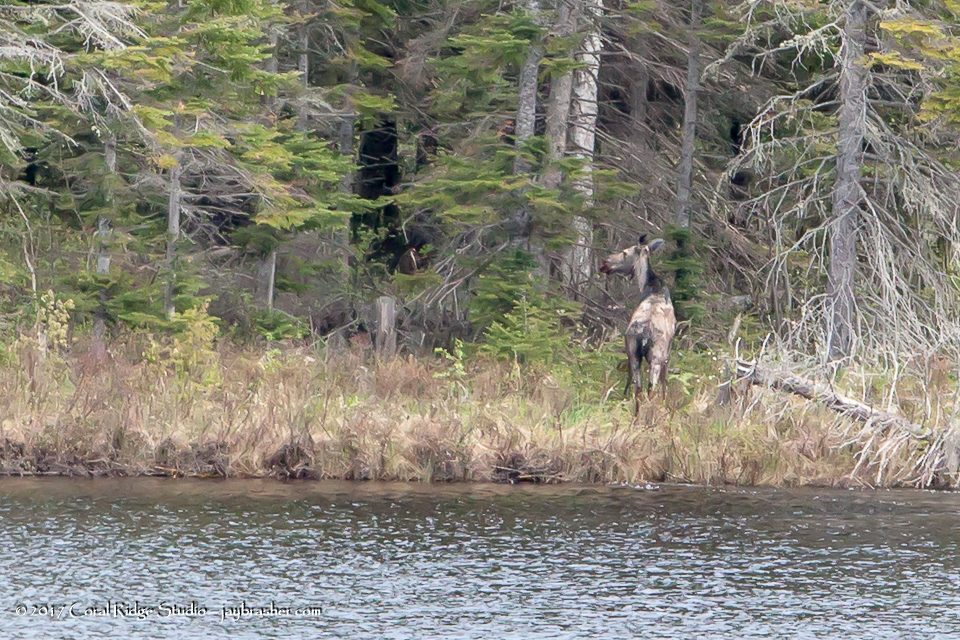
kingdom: Animalia
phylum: Chordata
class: Mammalia
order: Artiodactyla
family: Cervidae
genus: Alces
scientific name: Alces alces
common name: Moose
